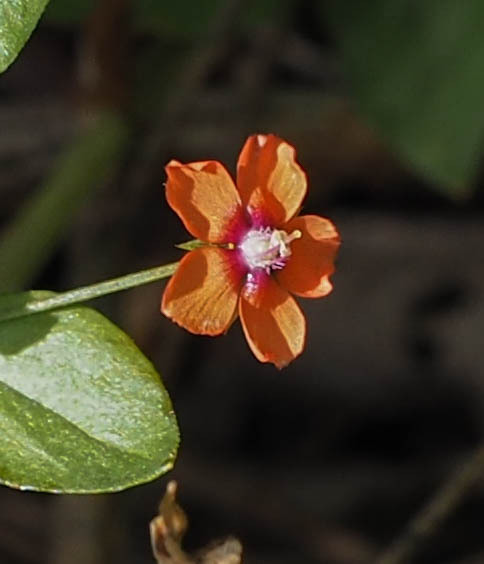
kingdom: Plantae
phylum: Tracheophyta
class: Magnoliopsida
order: Ericales
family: Primulaceae
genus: Lysimachia
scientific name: Lysimachia arvensis
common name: Scarlet pimpernel
